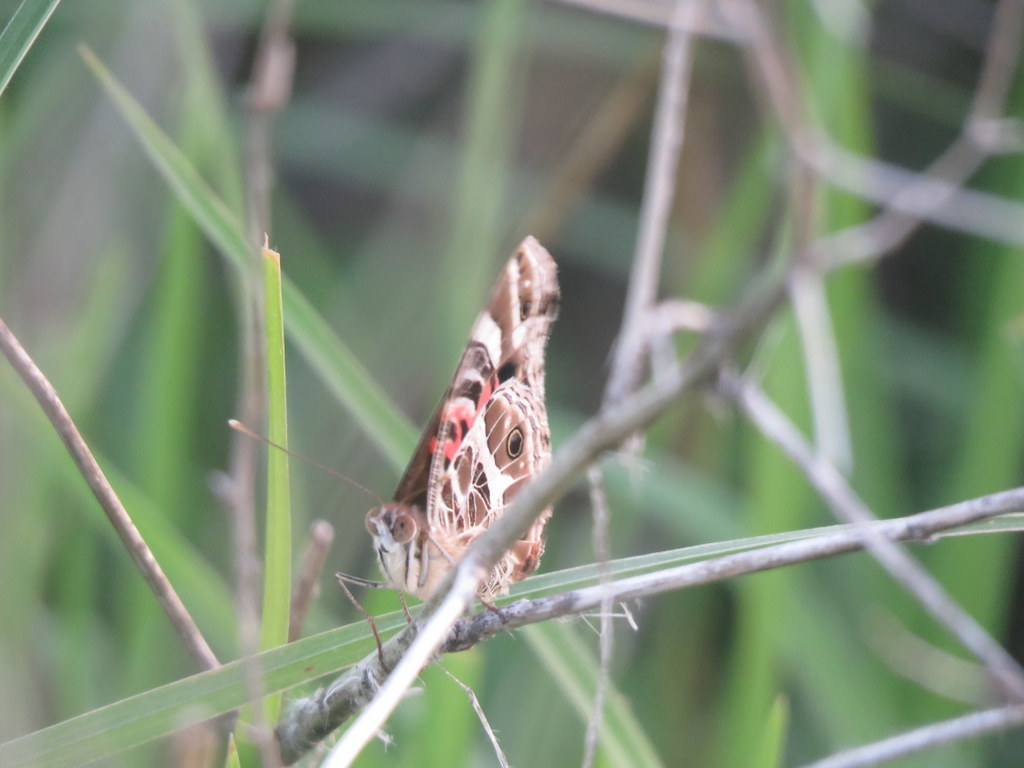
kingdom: Animalia
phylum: Arthropoda
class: Insecta
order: Lepidoptera
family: Nymphalidae
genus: Vanessa
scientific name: Vanessa braziliensis
